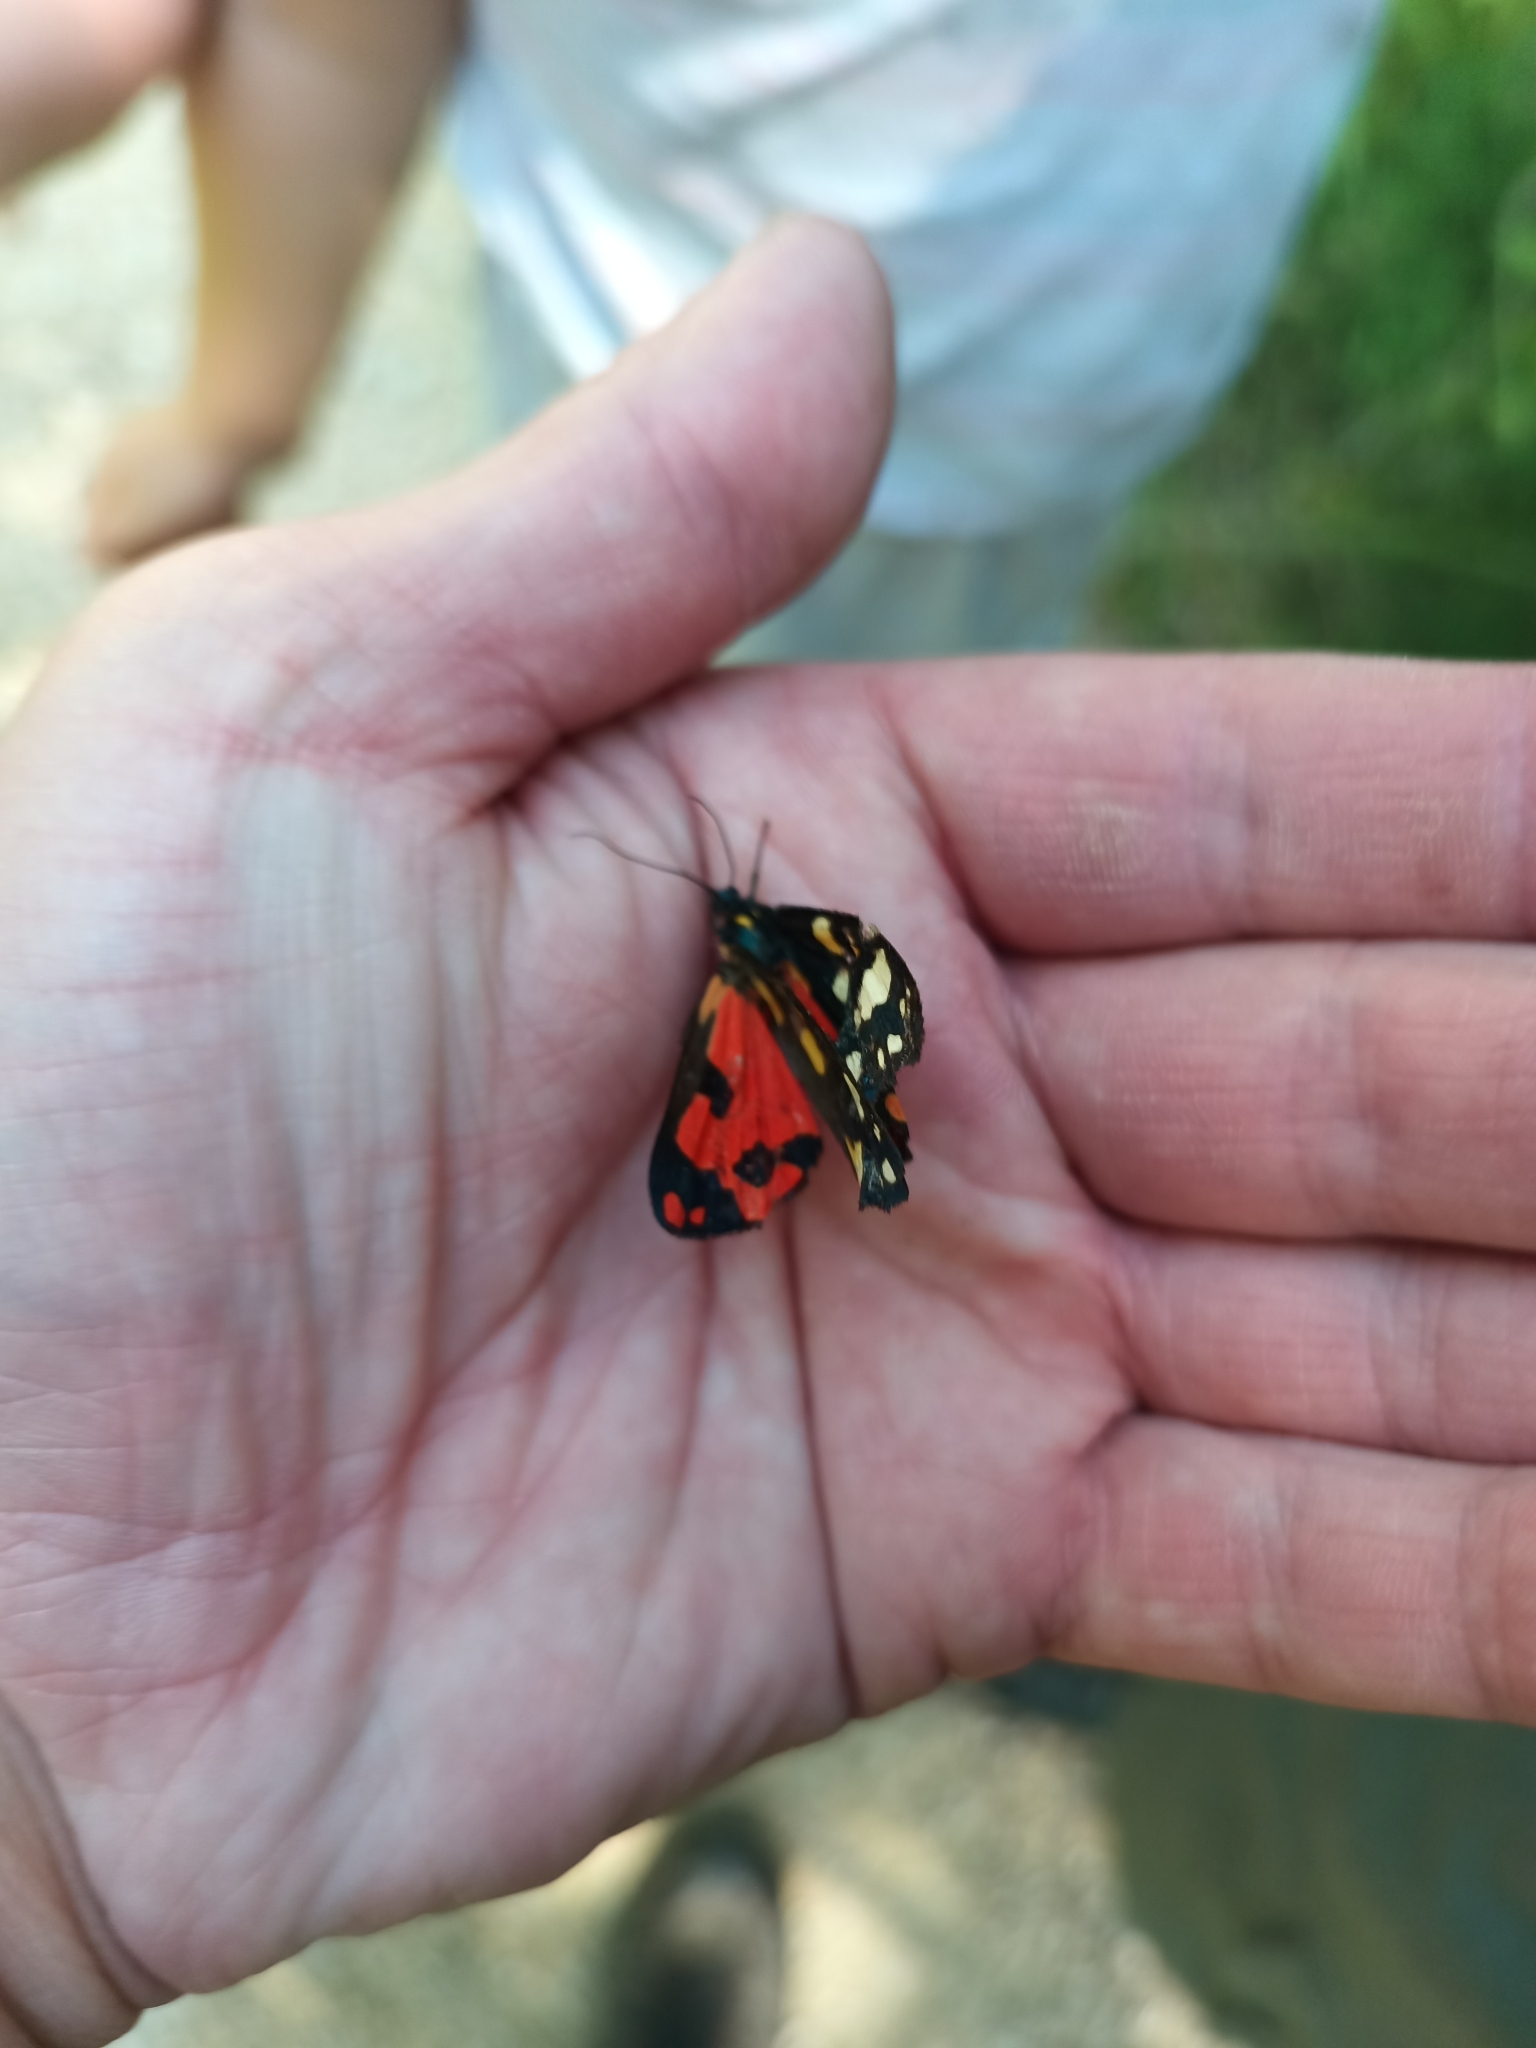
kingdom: Animalia
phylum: Arthropoda
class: Insecta
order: Lepidoptera
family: Erebidae
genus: Callimorpha
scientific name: Callimorpha dominula
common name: Scarlet tiger
